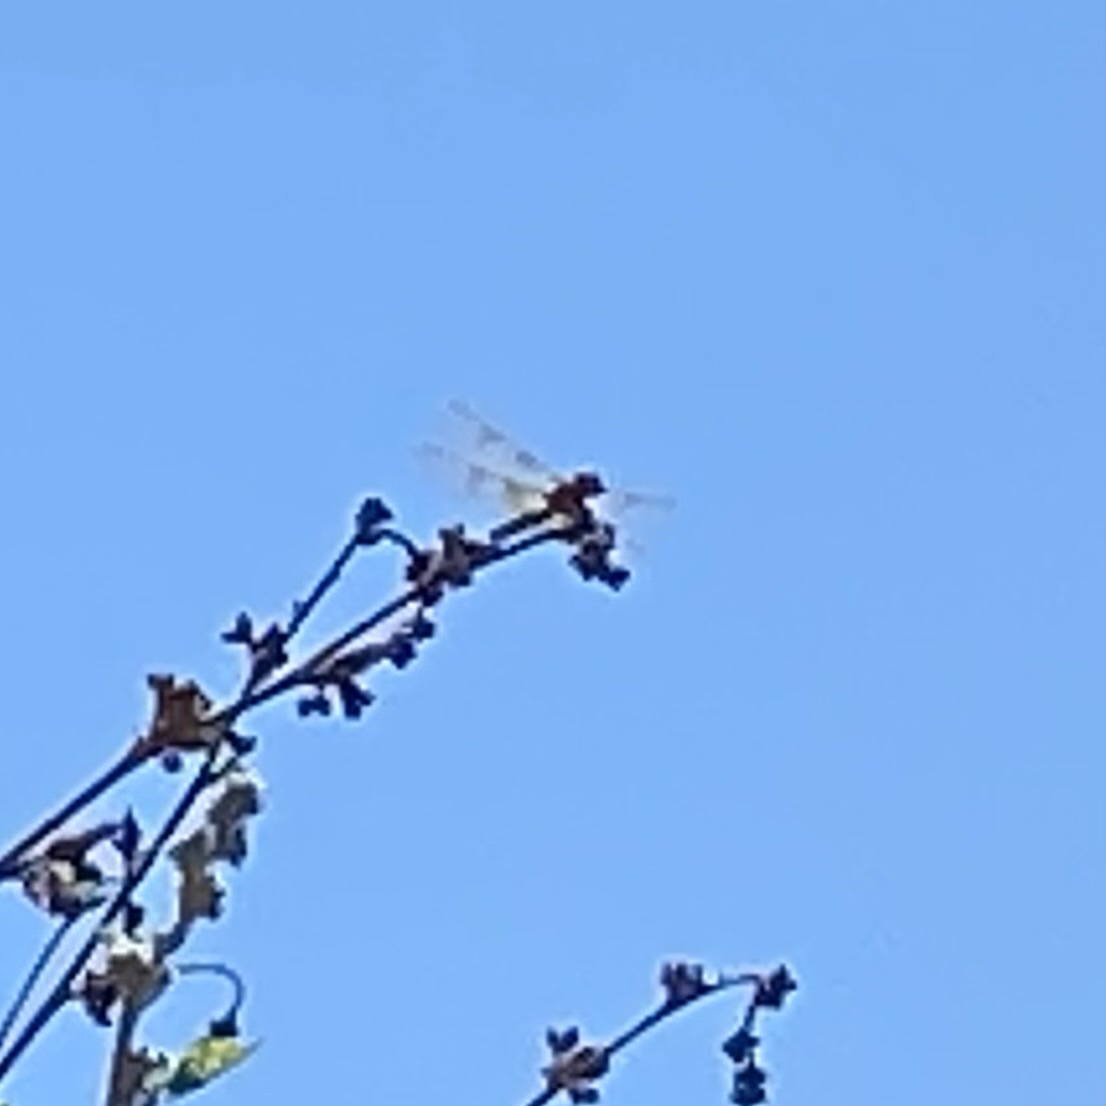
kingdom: Animalia
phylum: Arthropoda
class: Insecta
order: Odonata
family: Libellulidae
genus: Perithemis
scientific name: Perithemis intensa
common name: Mexican amberwing
